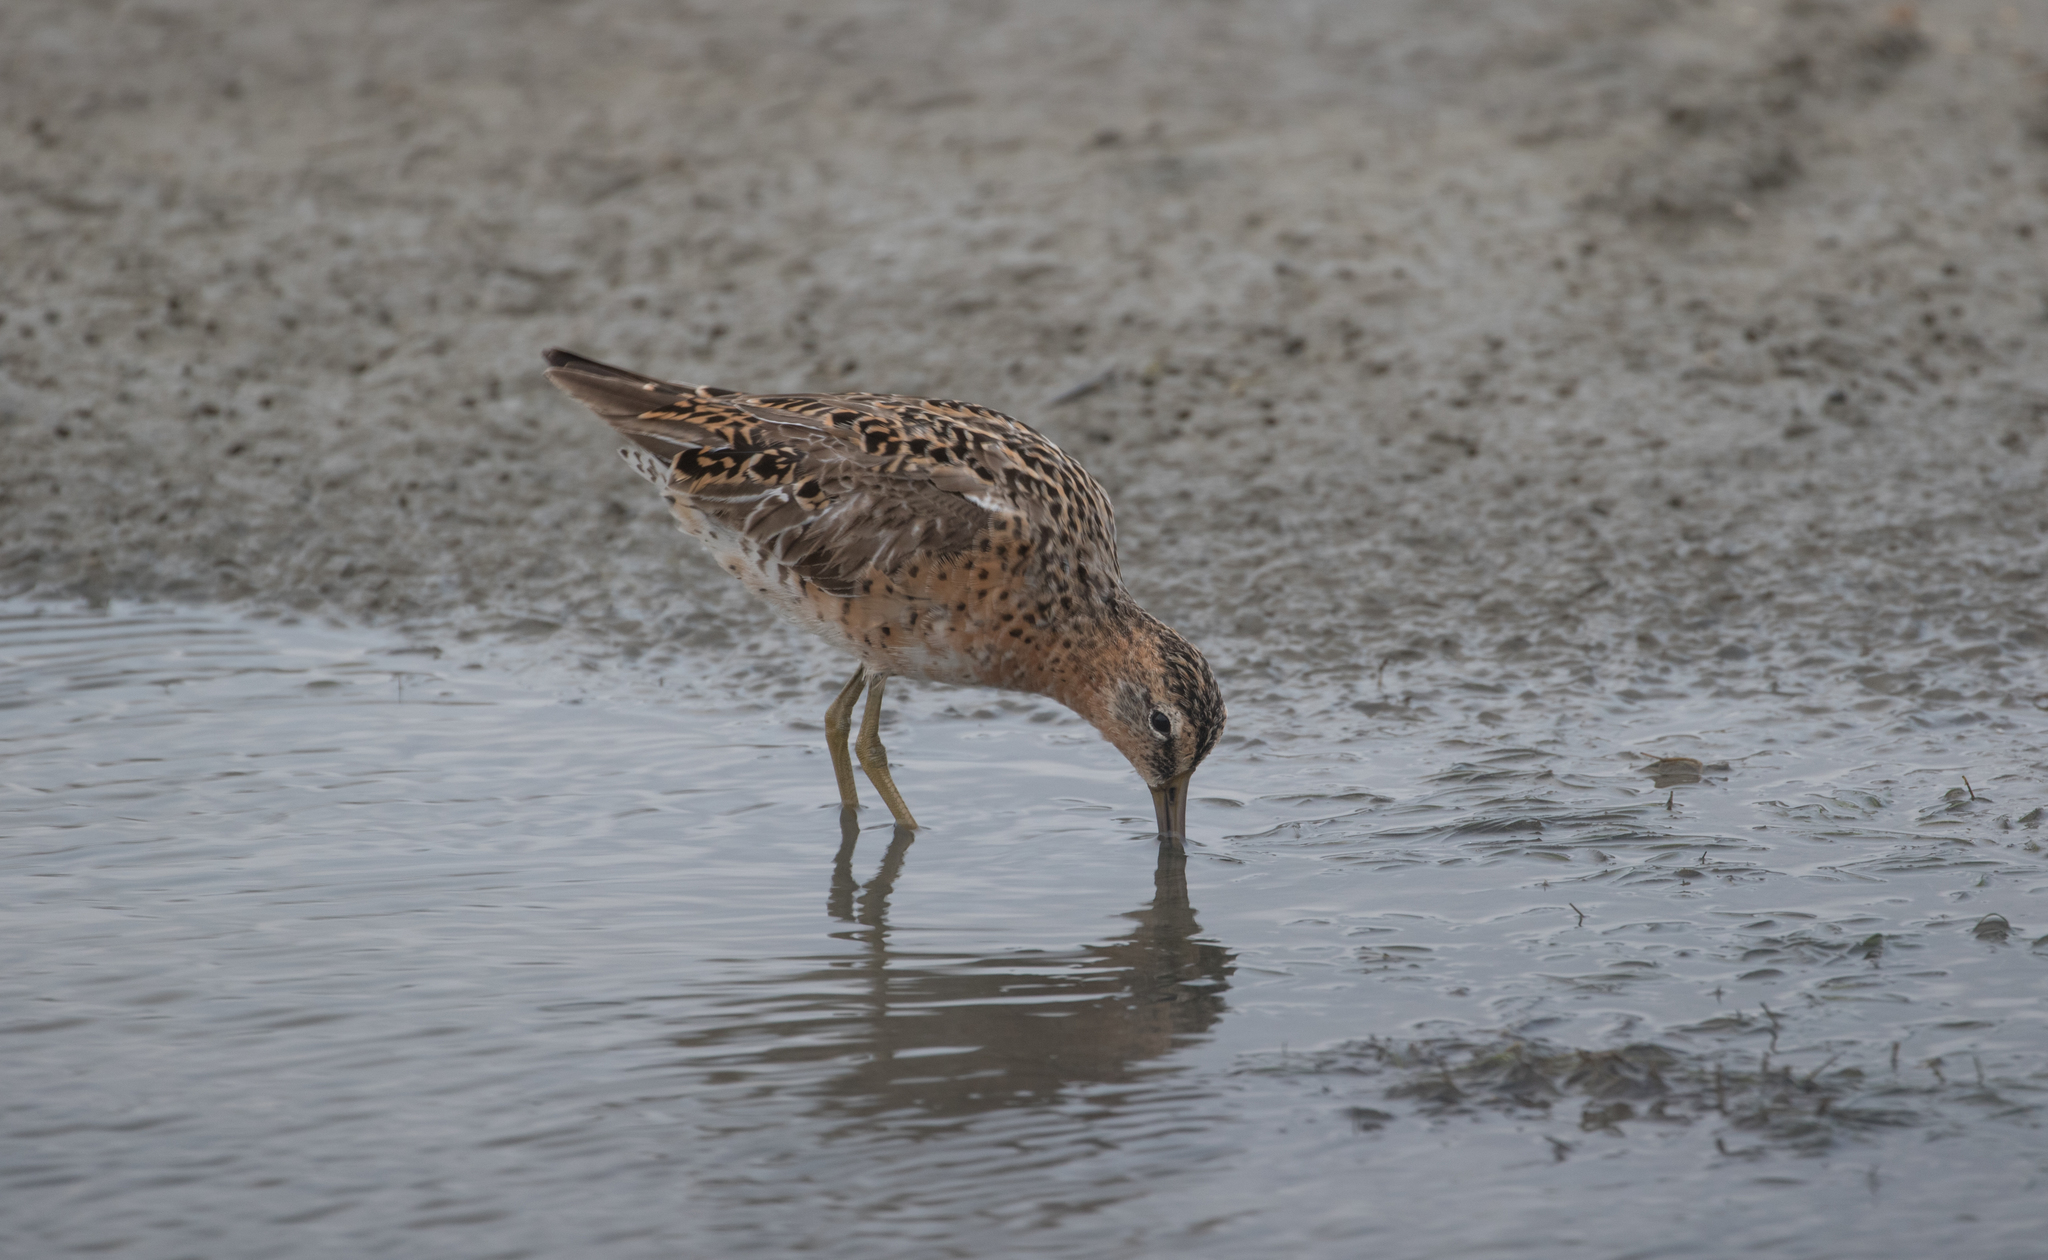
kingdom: Animalia
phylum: Chordata
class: Aves
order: Charadriiformes
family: Scolopacidae
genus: Limnodromus
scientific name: Limnodromus griseus
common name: Short-billed dowitcher
